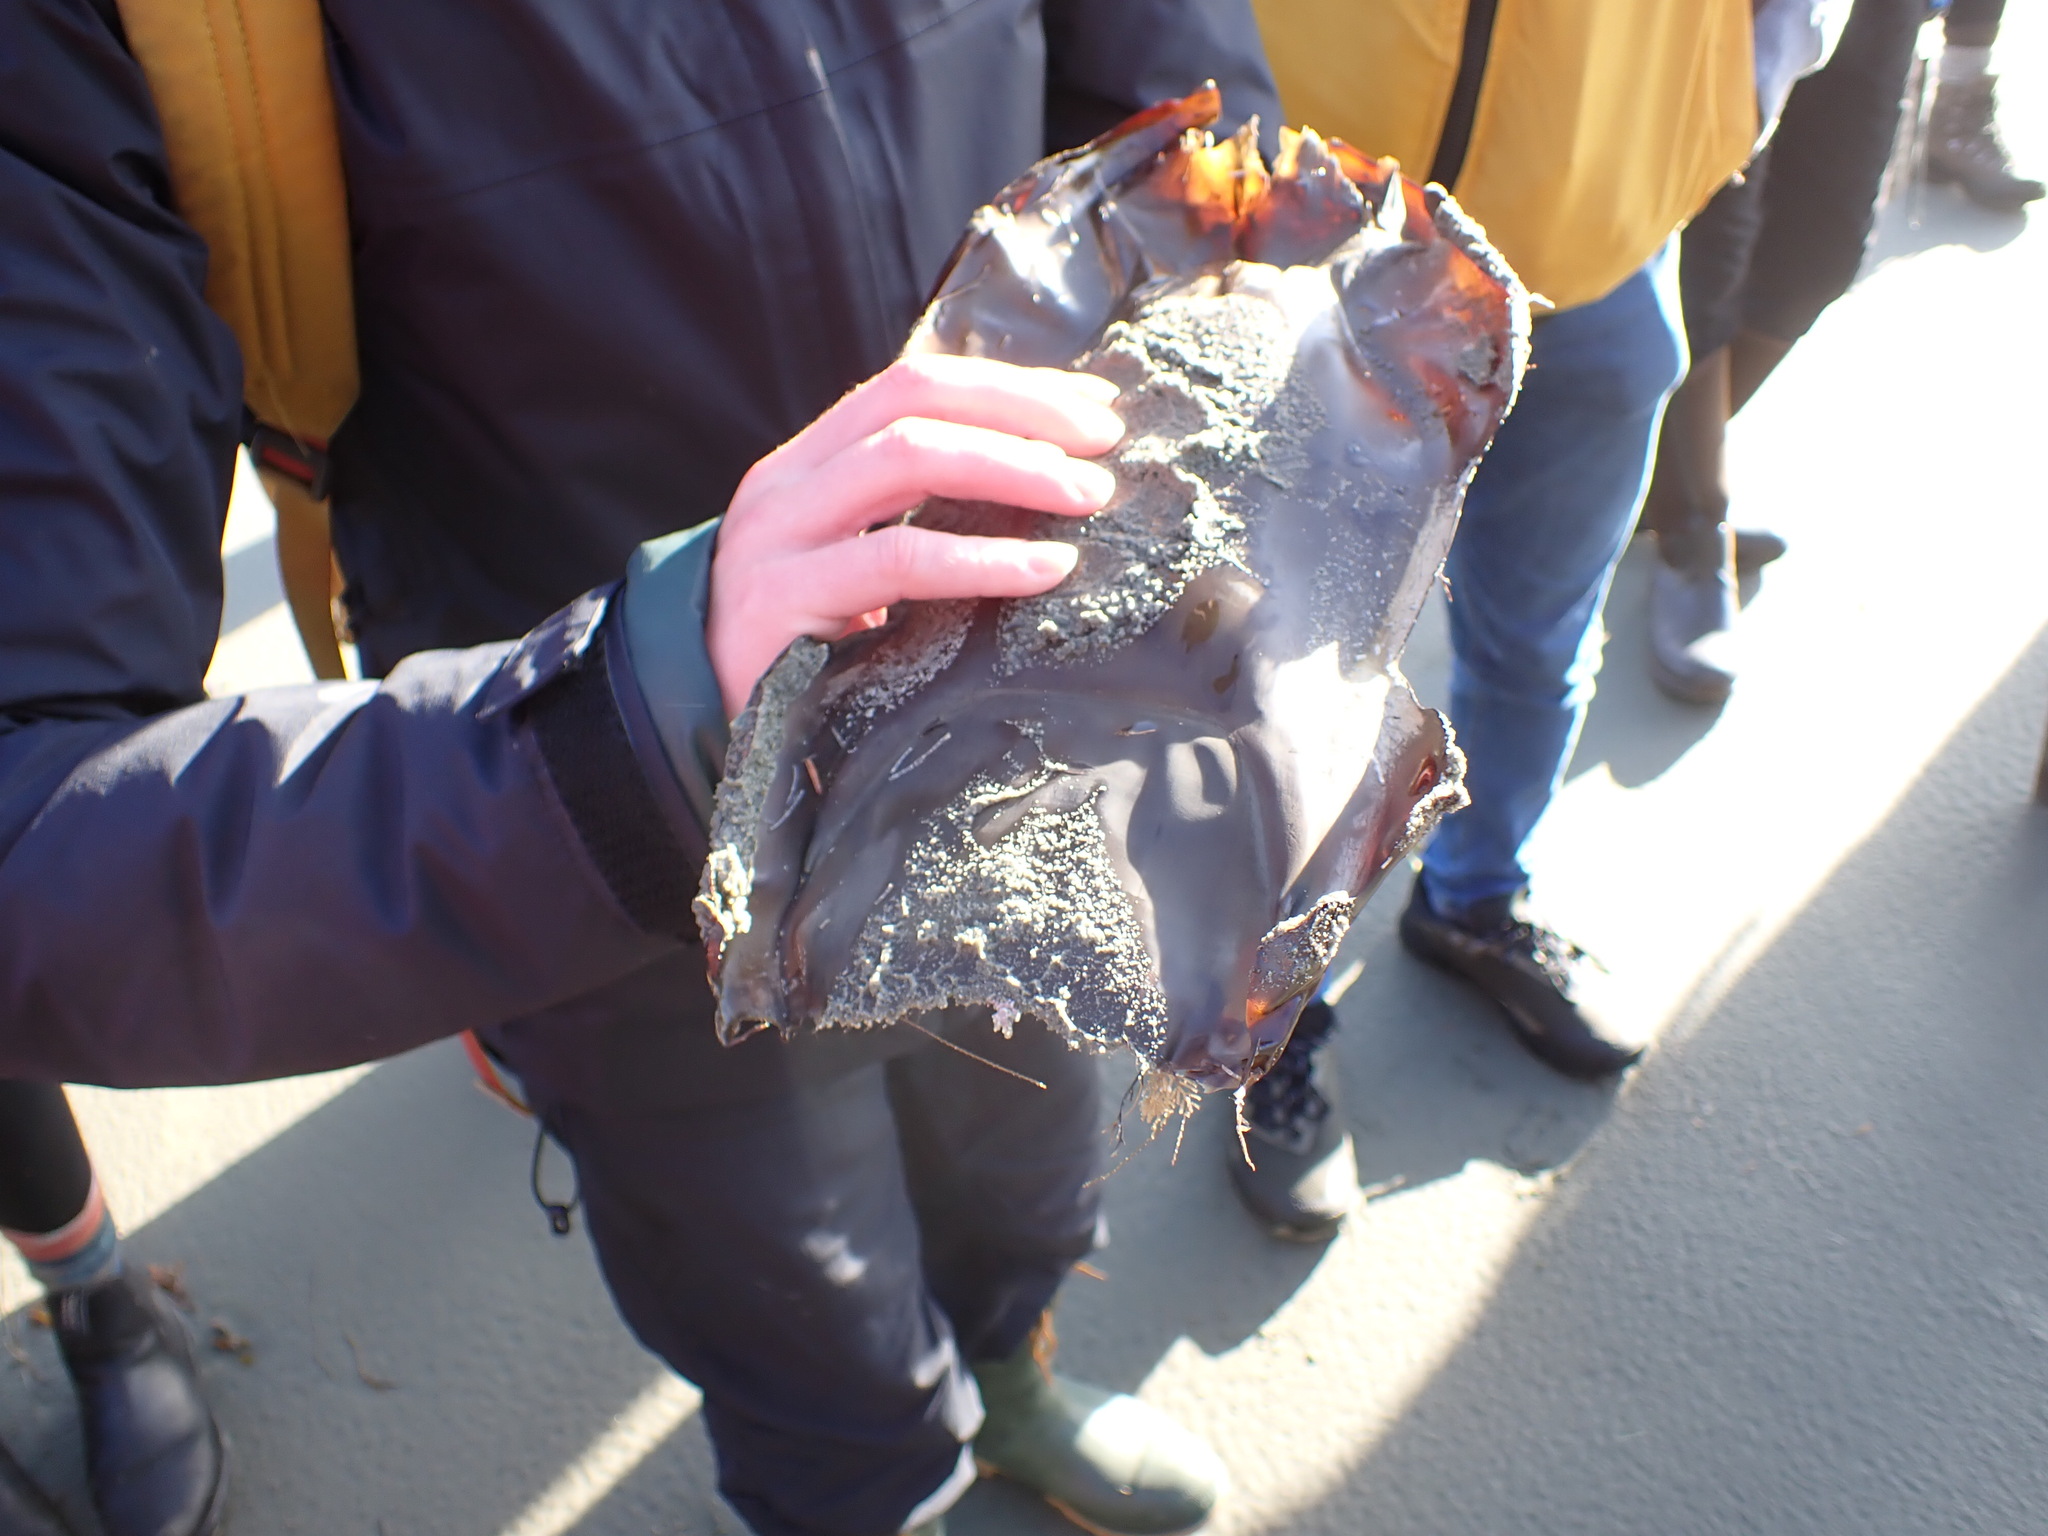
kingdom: Animalia
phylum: Chordata
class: Elasmobranchii
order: Rajiformes
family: Rajidae
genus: Beringraja
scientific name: Beringraja binoculata
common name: Big skate
